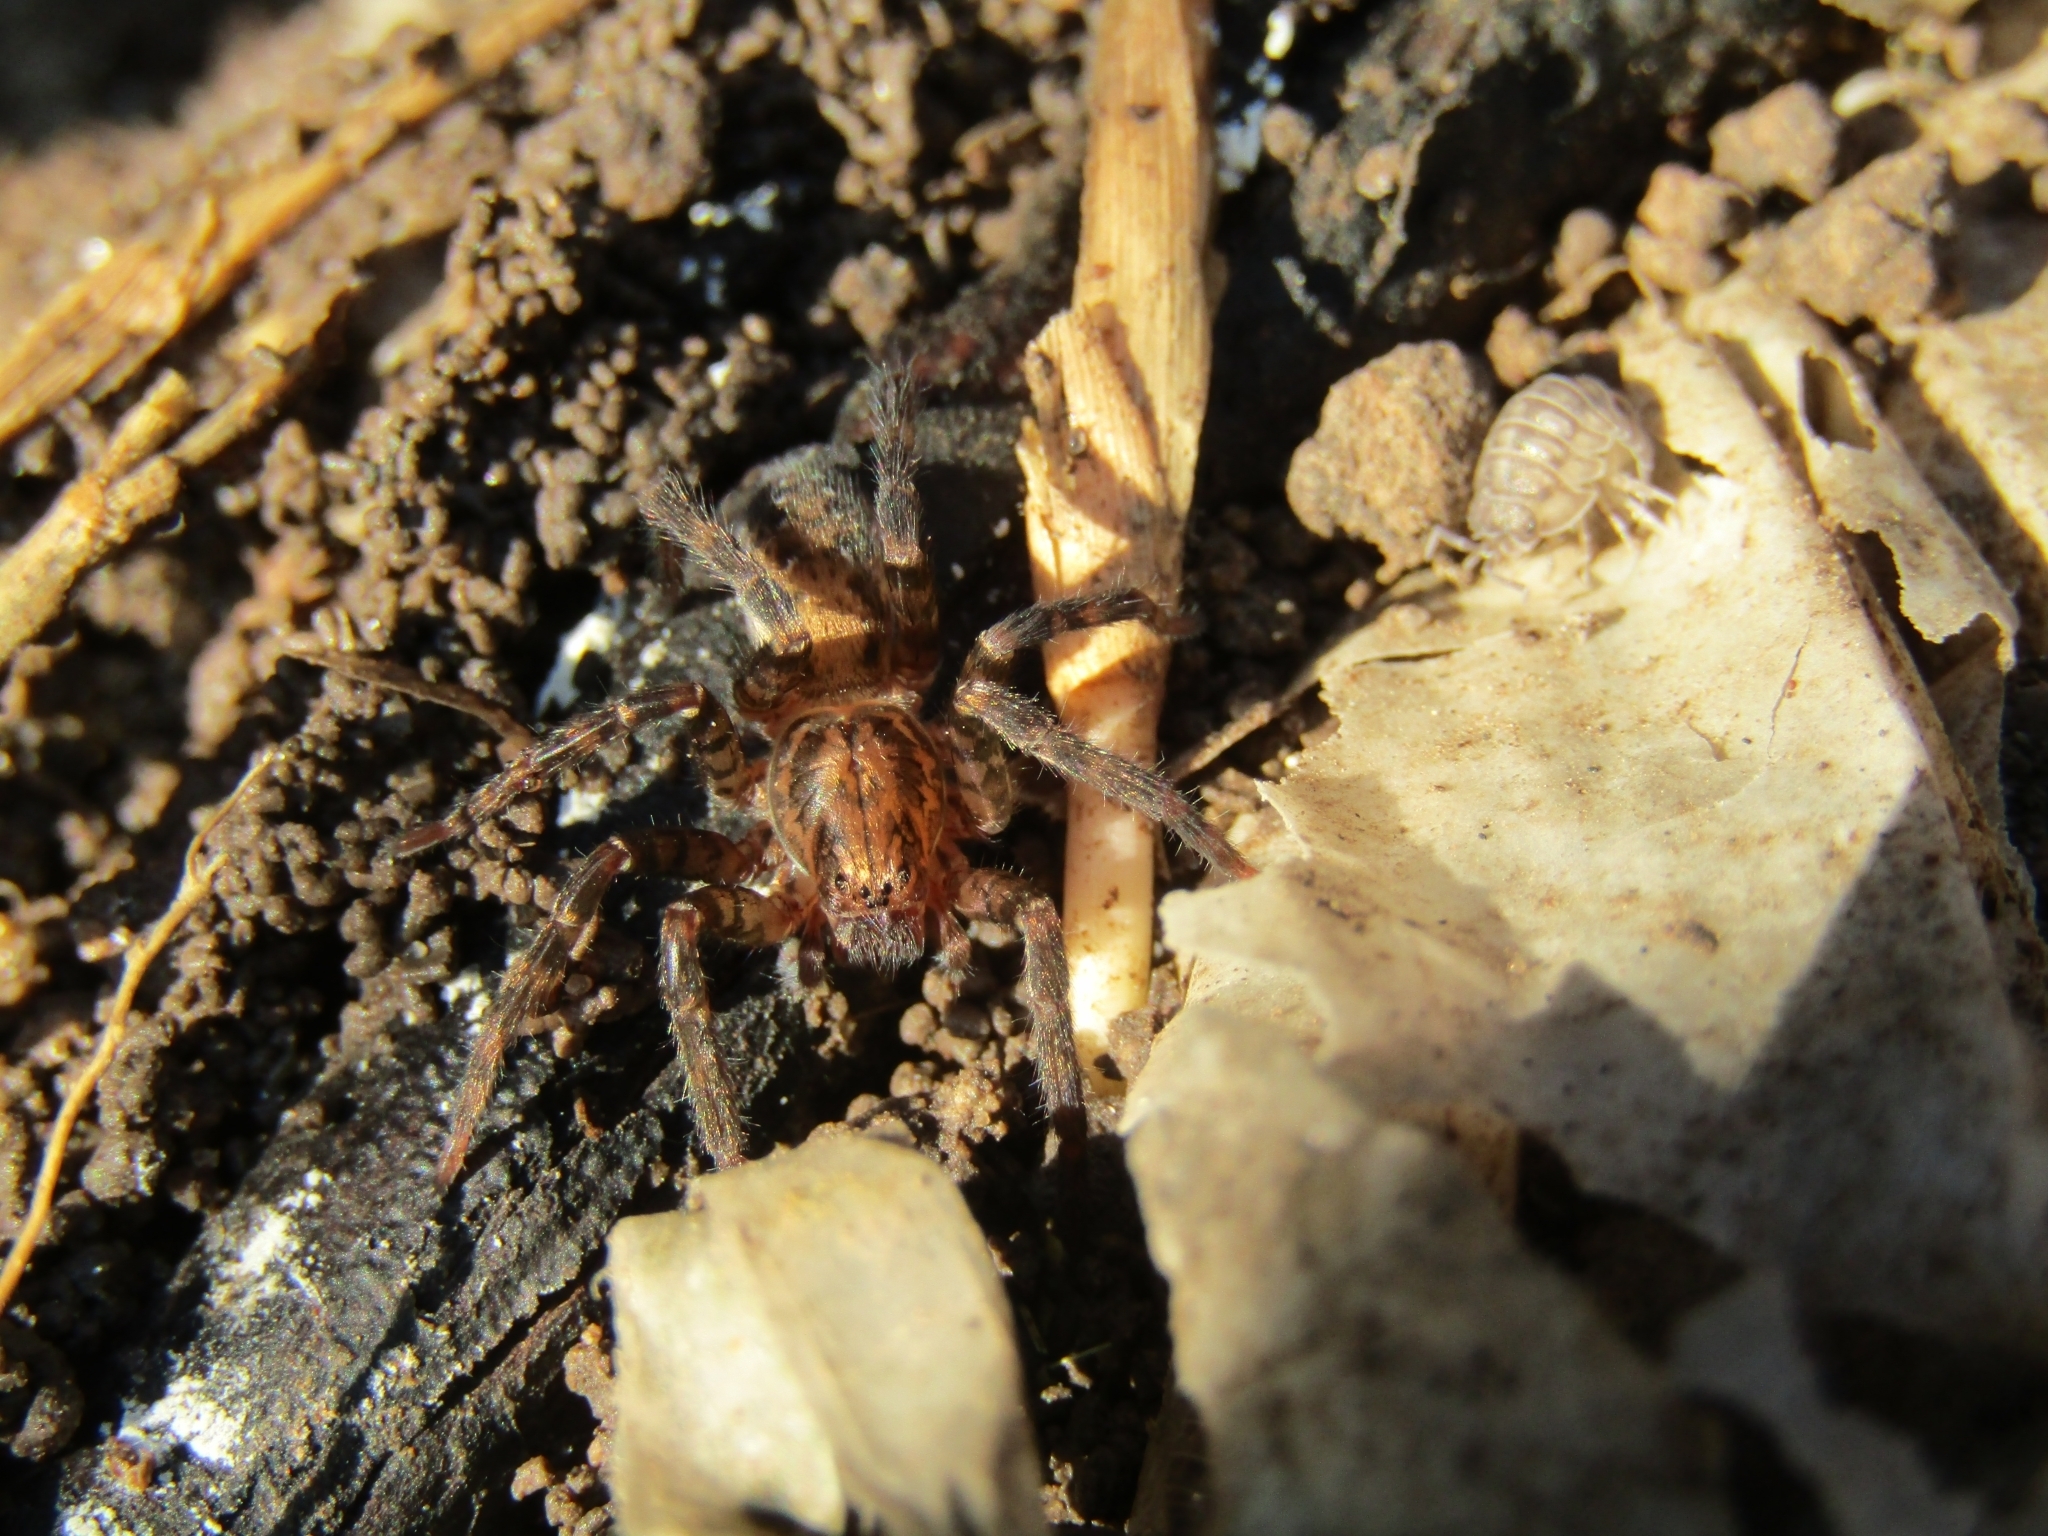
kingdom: Animalia
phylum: Arthropoda
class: Arachnida
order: Araneae
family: Ctenidae
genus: Asthenoctenus
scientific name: Asthenoctenus borellii
